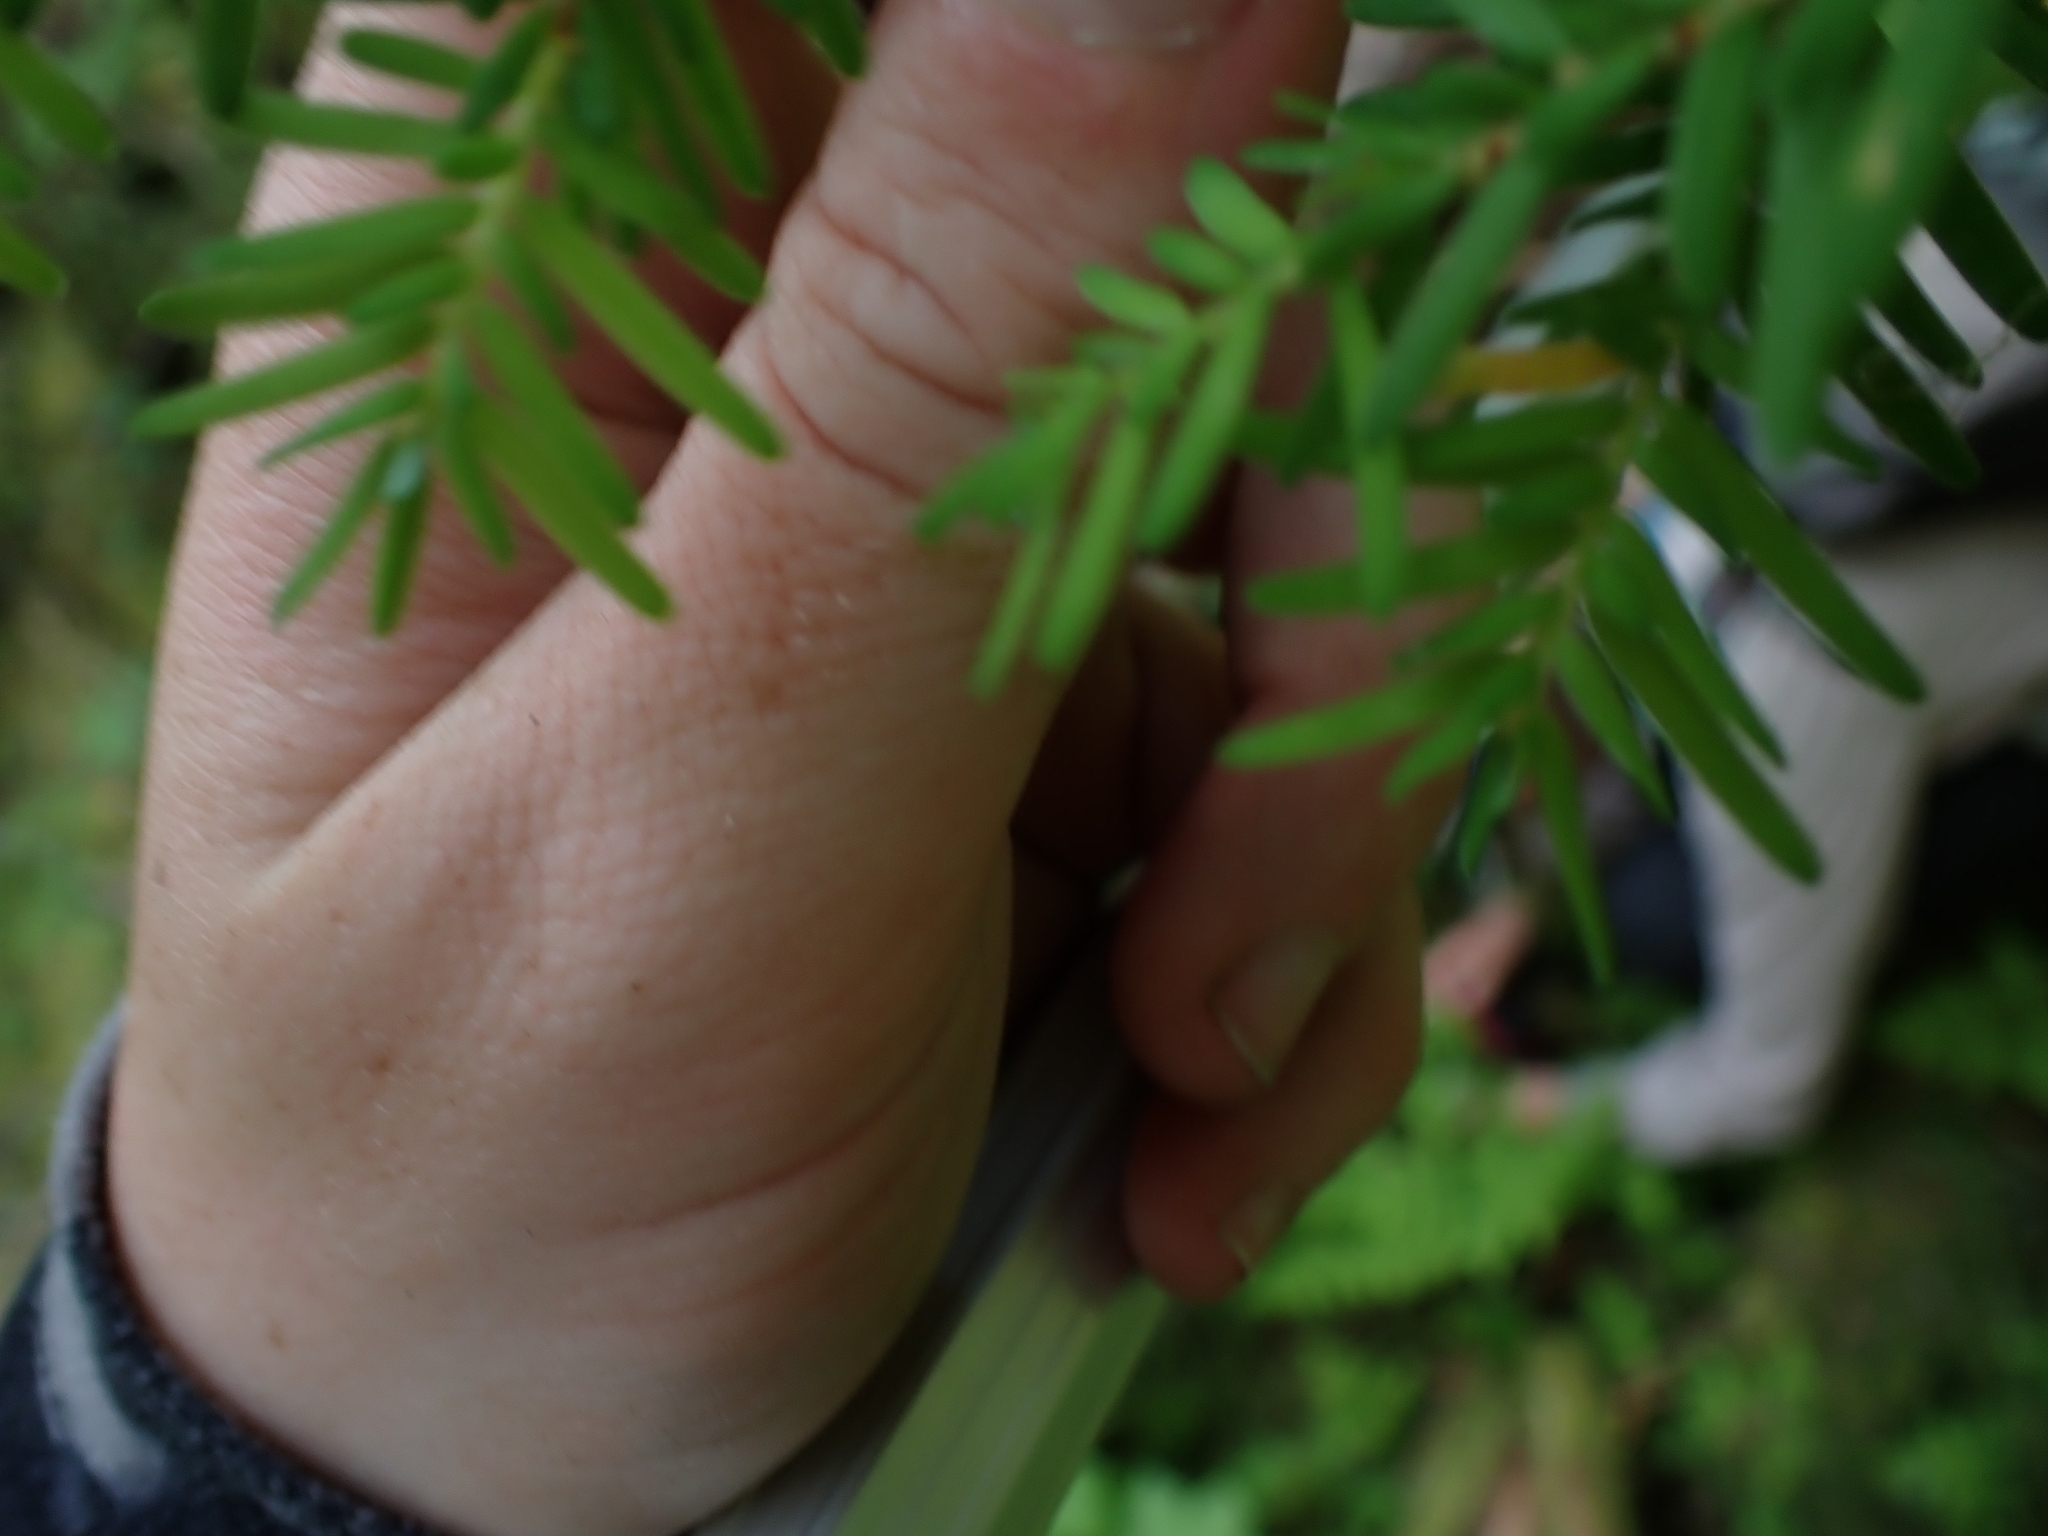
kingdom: Plantae
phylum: Tracheophyta
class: Pinopsida
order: Pinales
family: Pinaceae
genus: Tsuga
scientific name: Tsuga heterophylla
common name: Western hemlock
